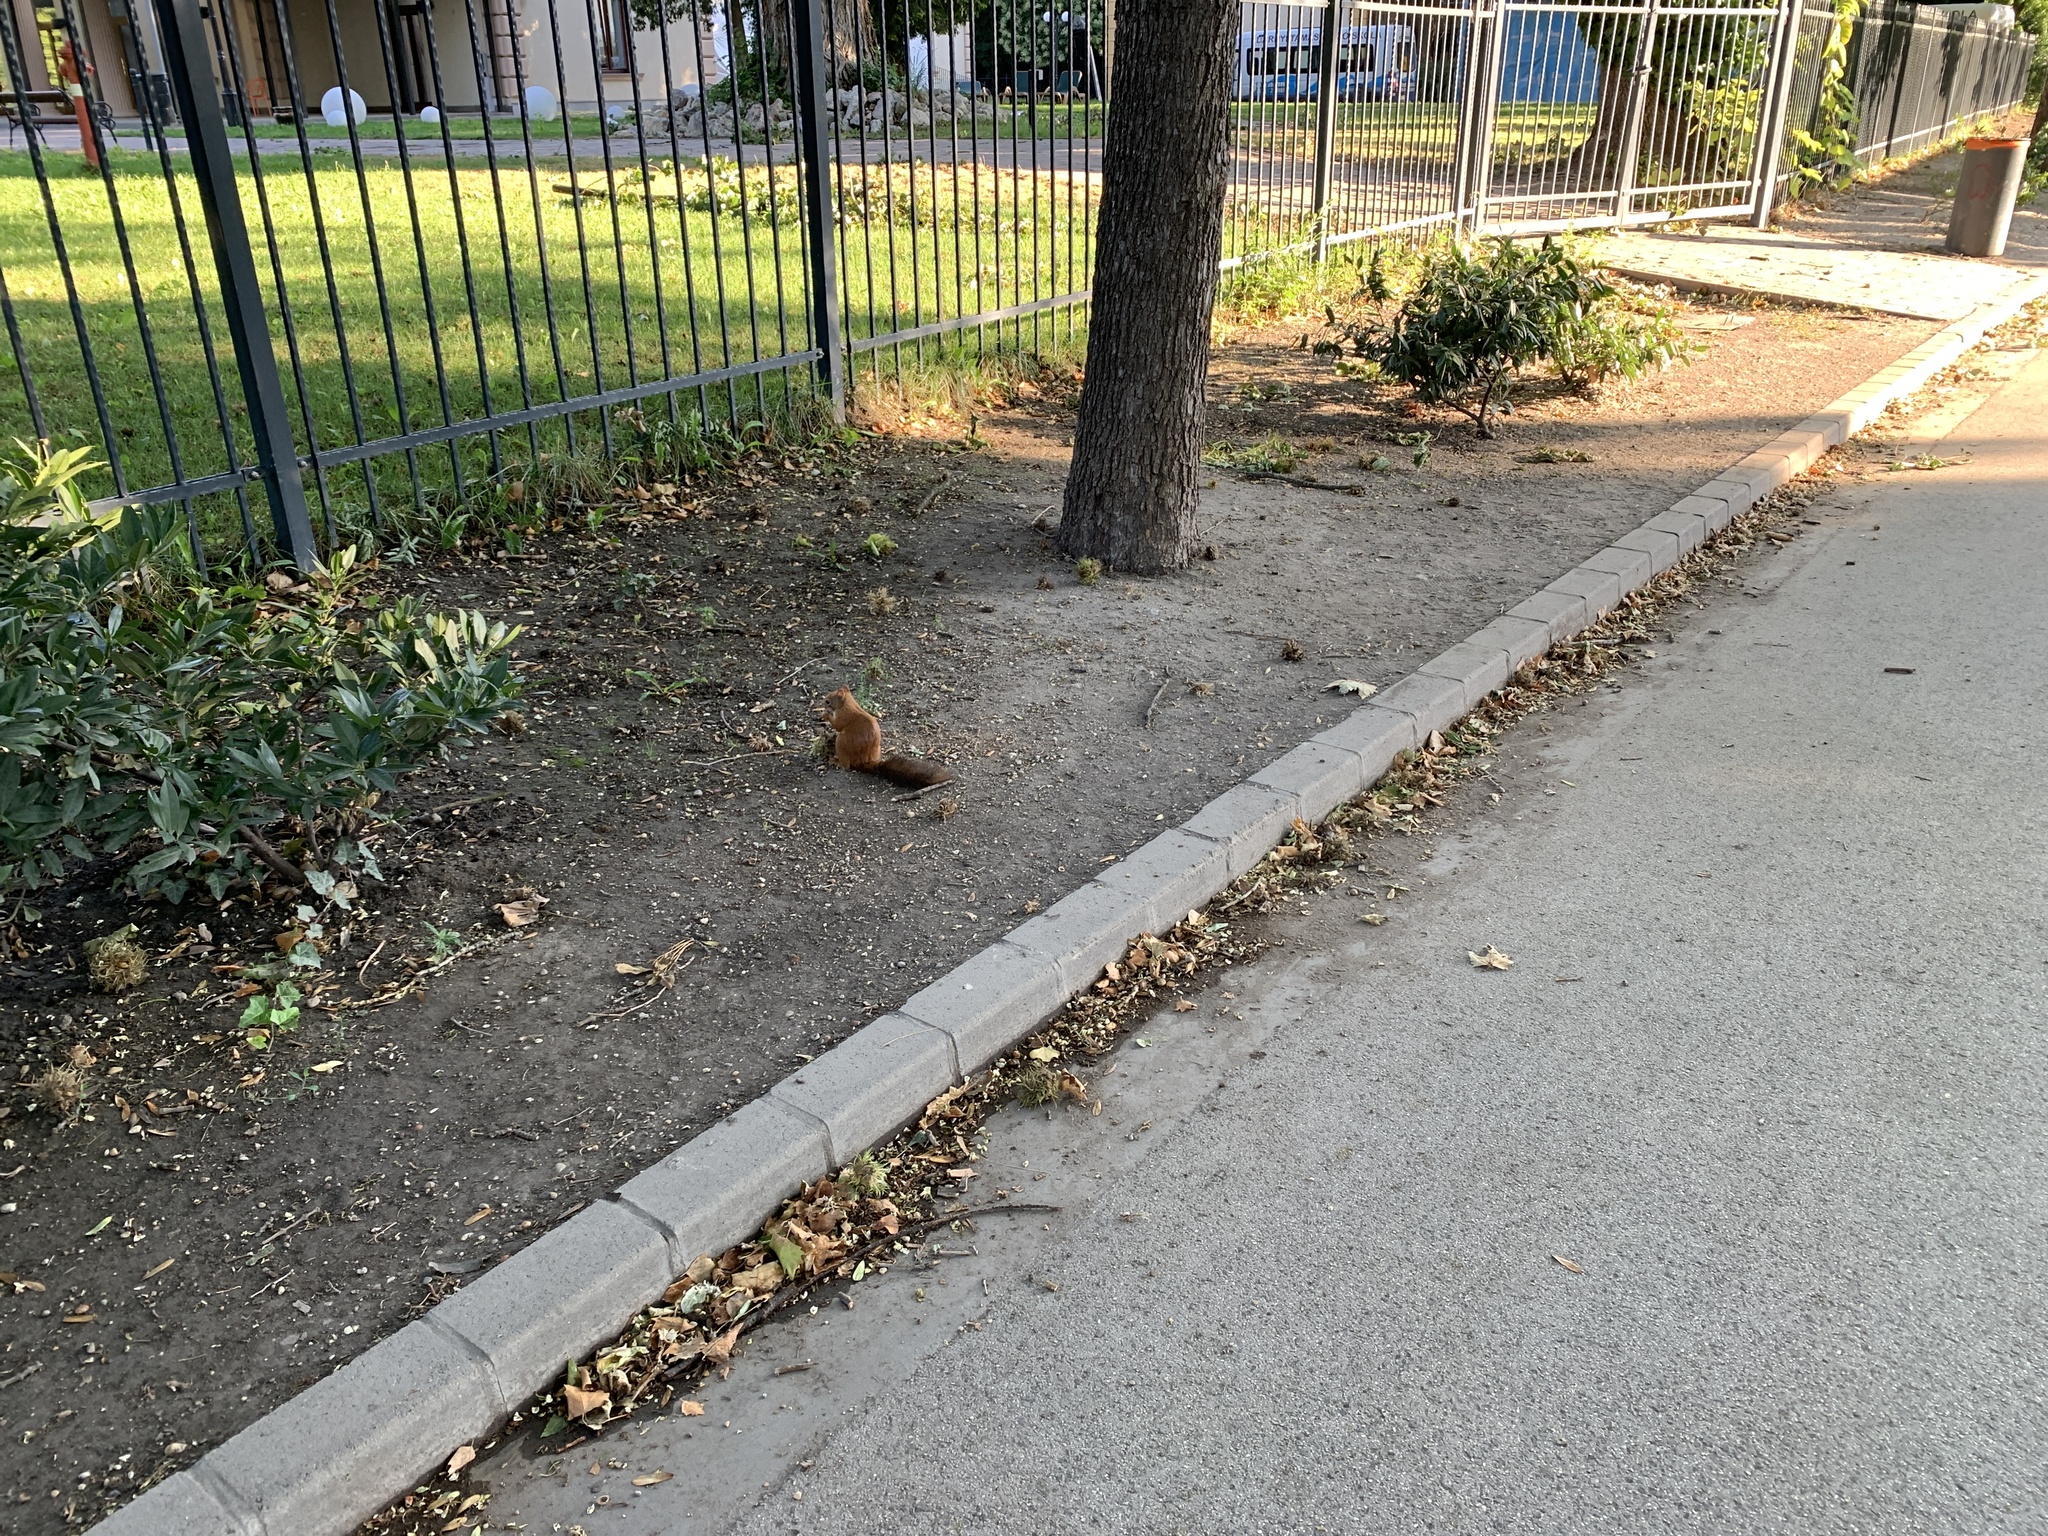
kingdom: Animalia
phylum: Chordata
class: Mammalia
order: Rodentia
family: Sciuridae
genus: Sciurus
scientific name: Sciurus vulgaris
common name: Eurasian red squirrel
